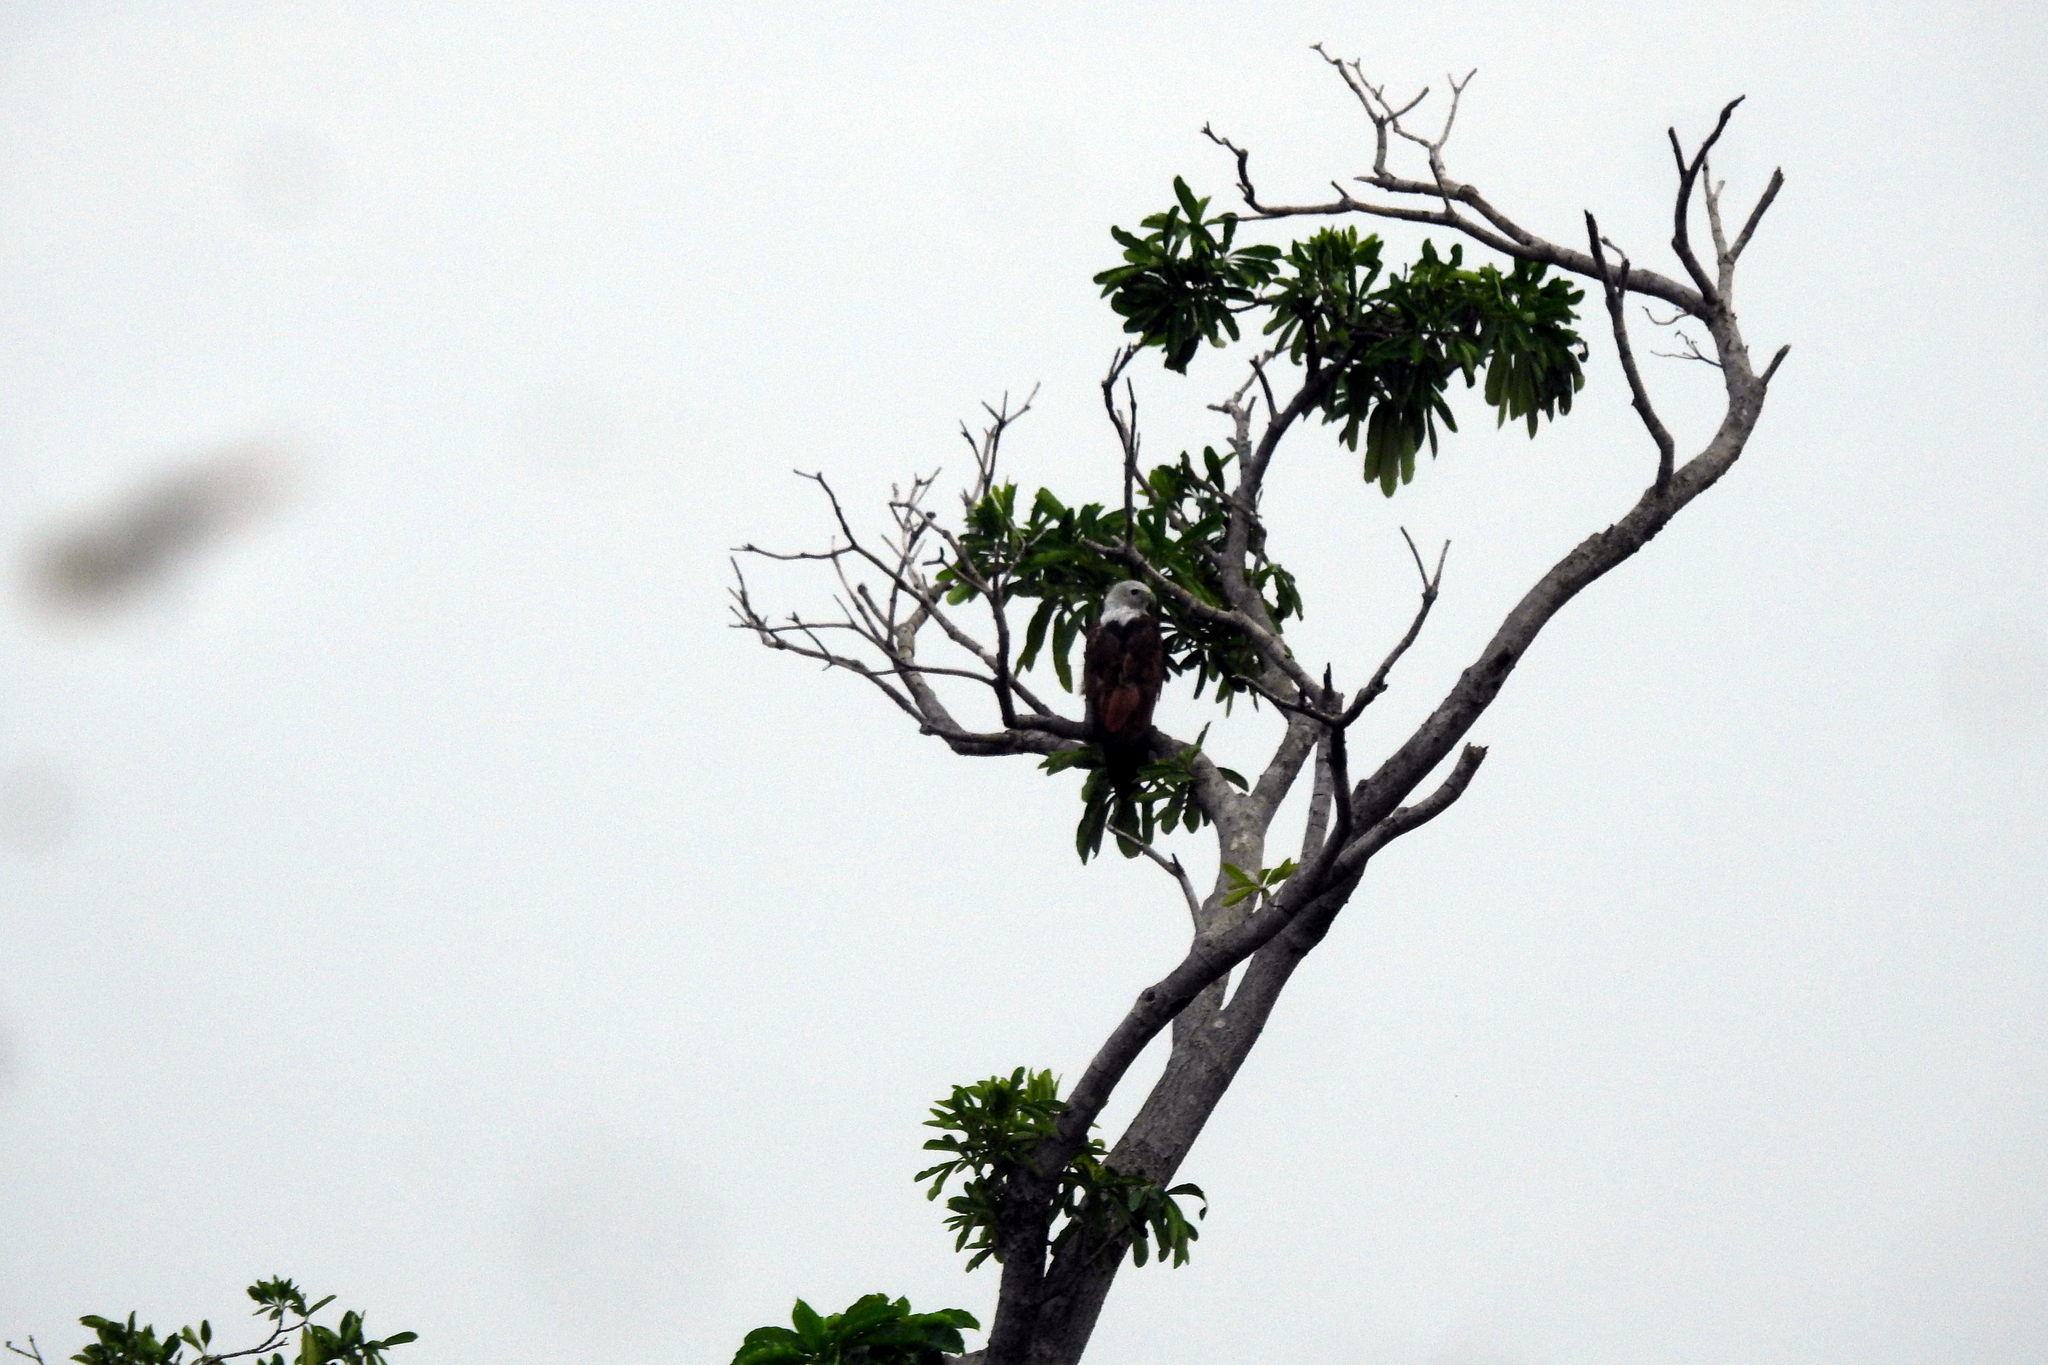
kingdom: Animalia
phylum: Chordata
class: Aves
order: Accipitriformes
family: Accipitridae
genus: Haliastur
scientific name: Haliastur indus
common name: Brahminy kite
